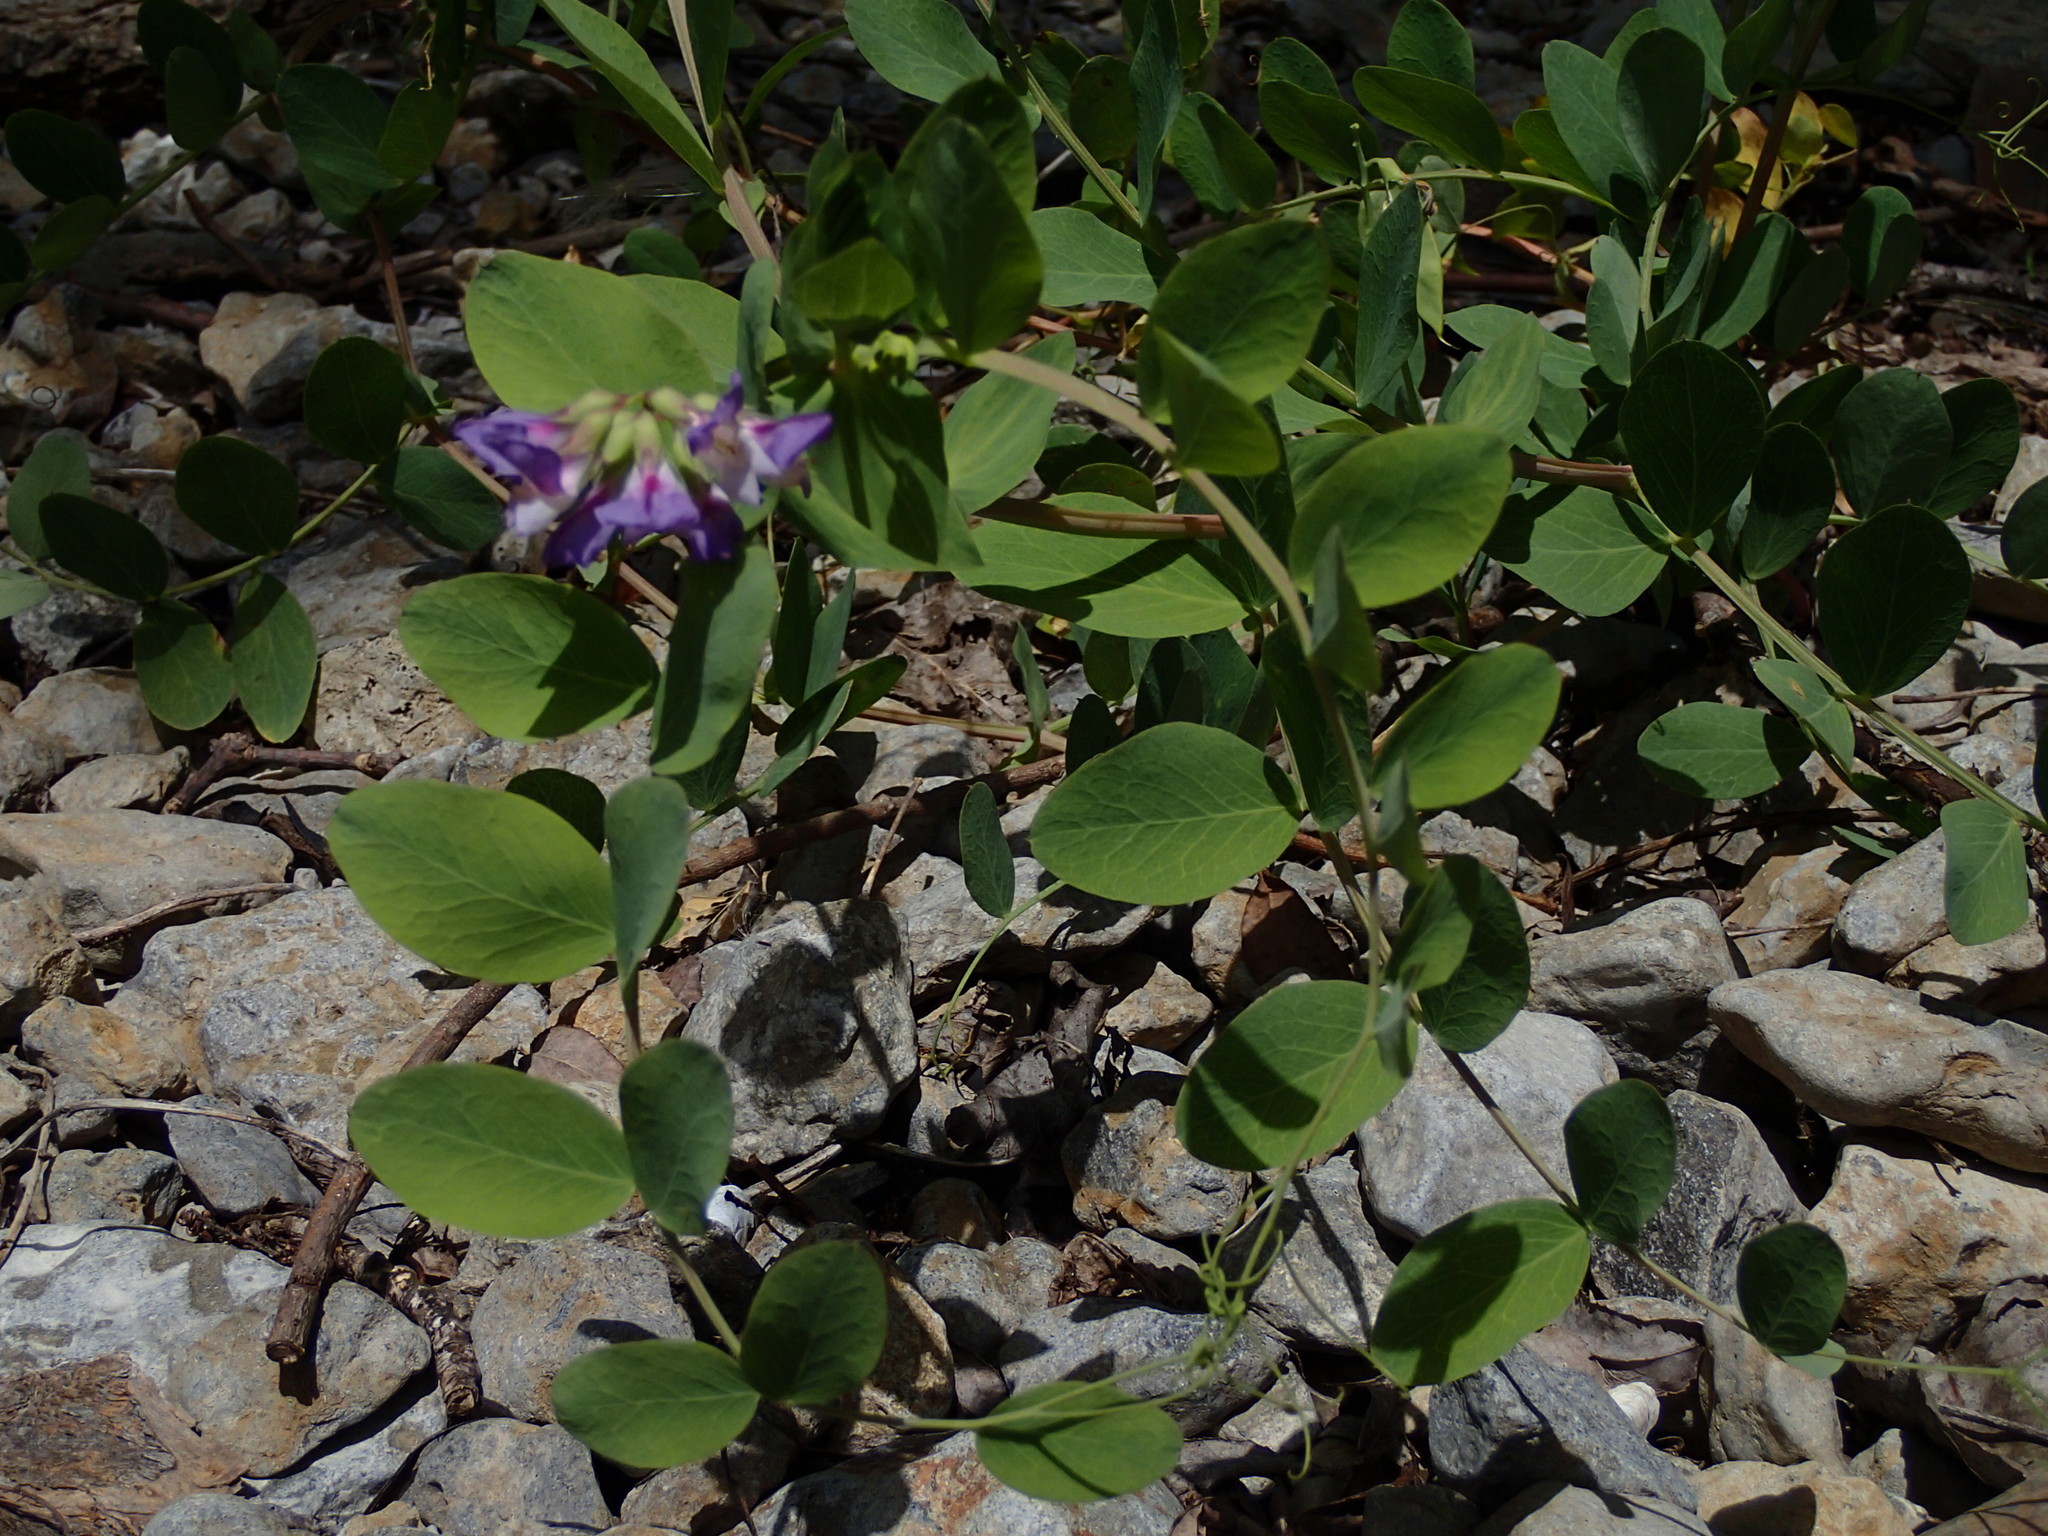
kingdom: Plantae
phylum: Tracheophyta
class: Magnoliopsida
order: Fabales
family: Fabaceae
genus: Lathyrus
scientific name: Lathyrus japonicus
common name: Sea pea
